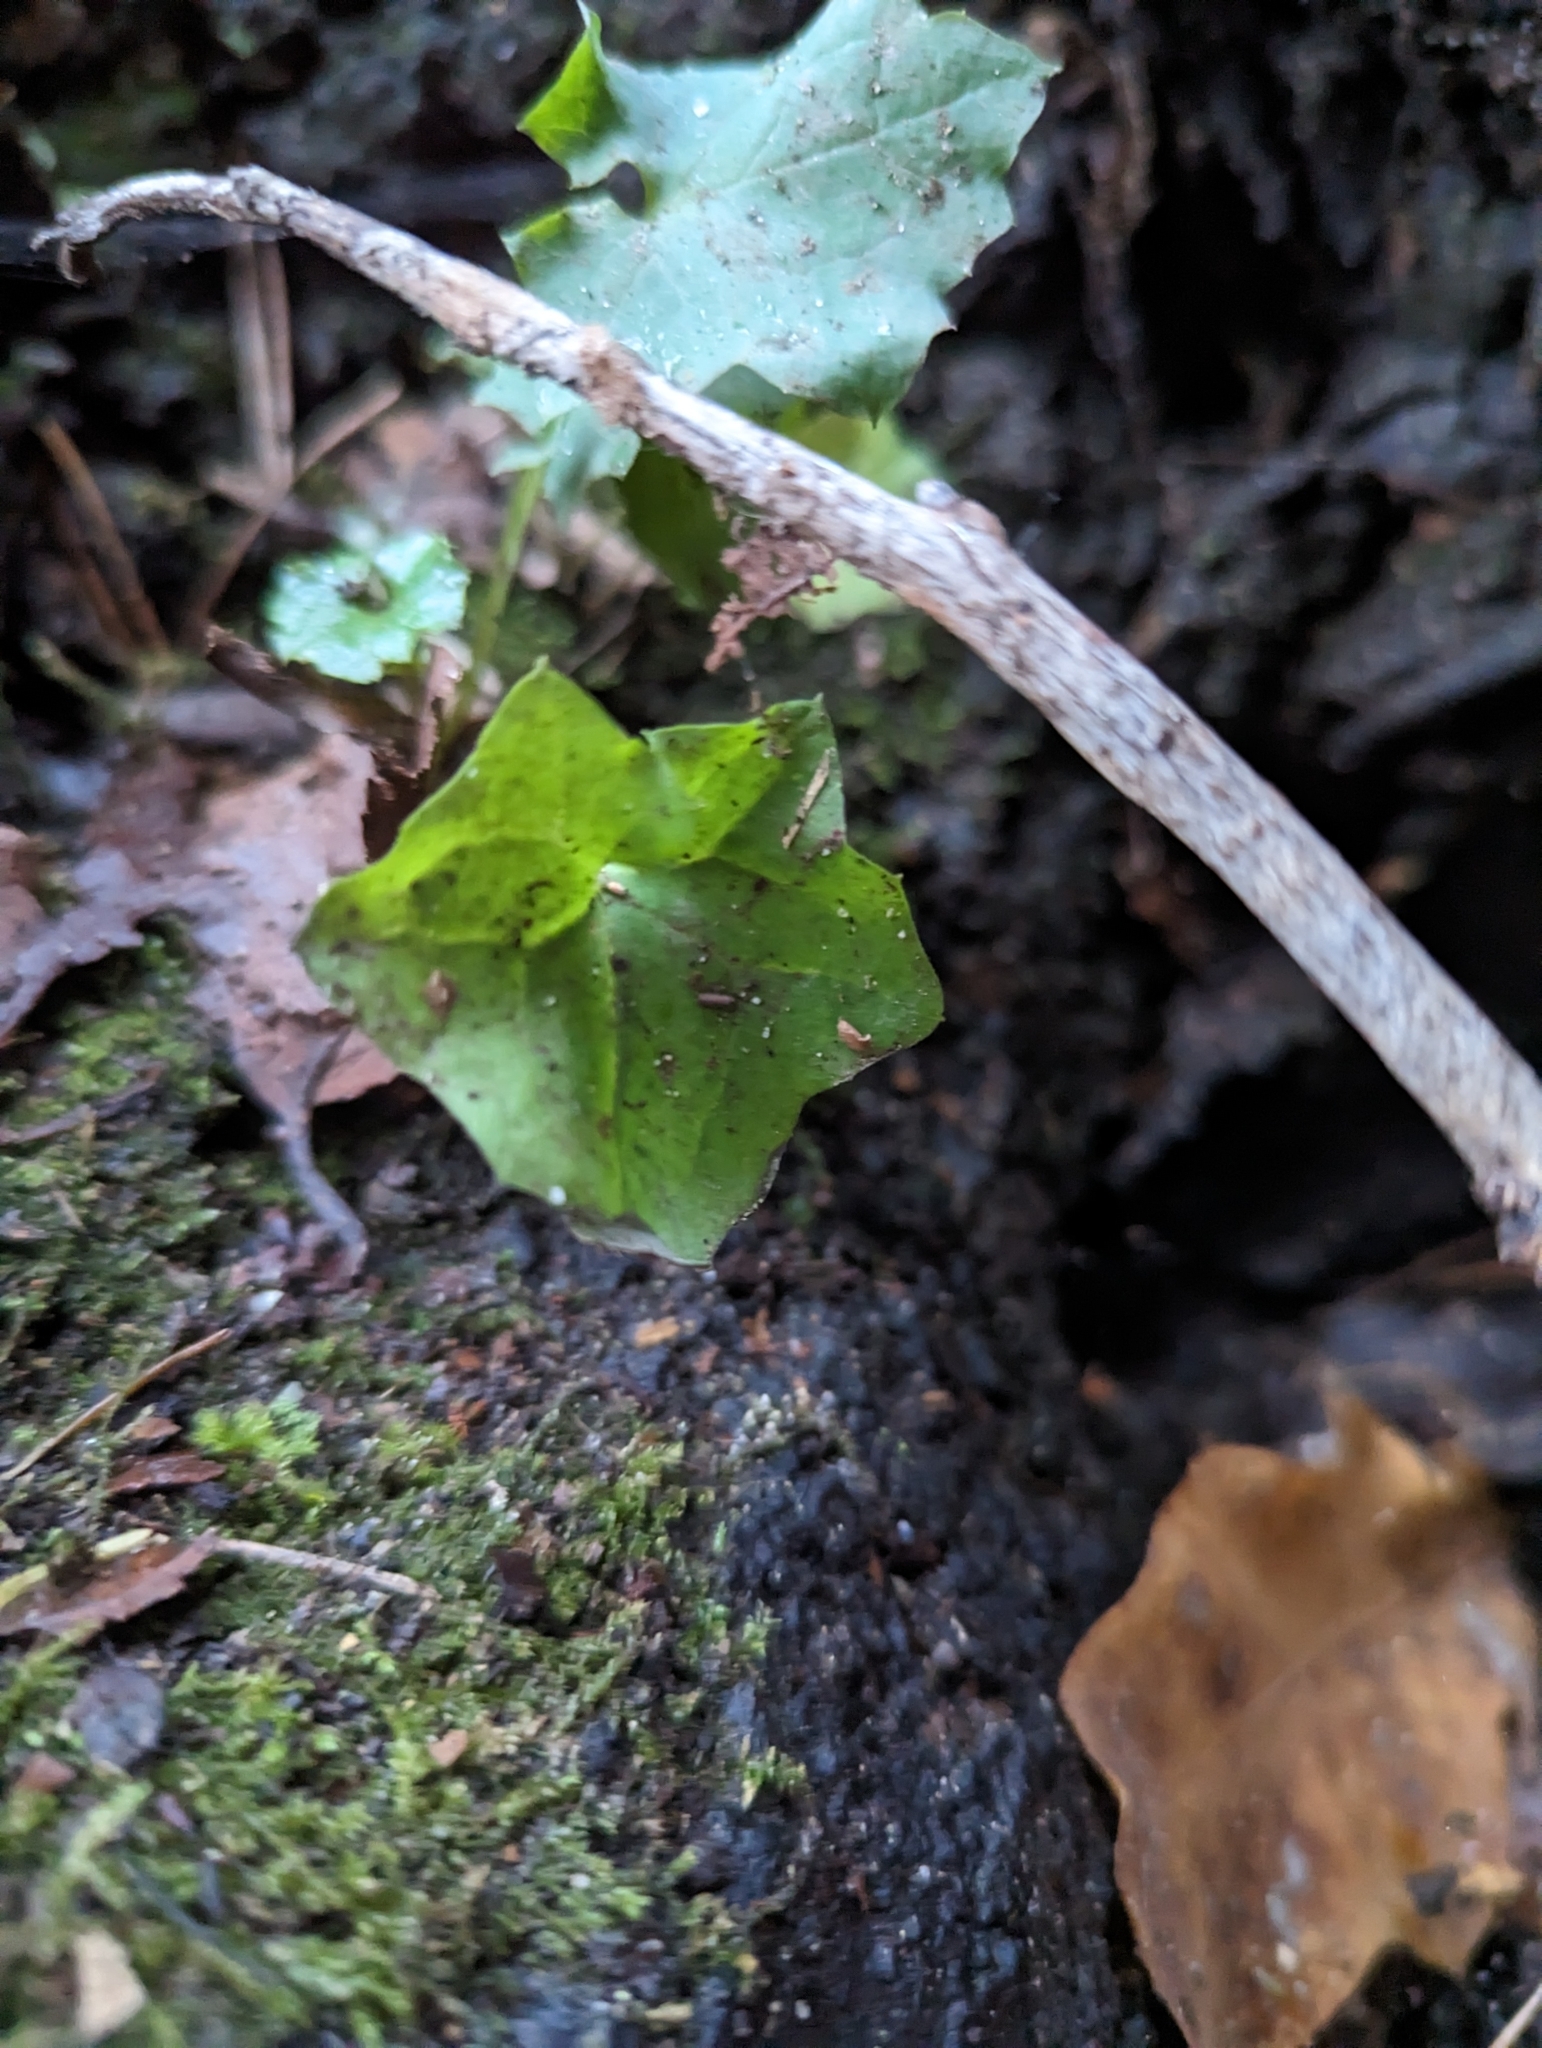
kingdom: Plantae
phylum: Tracheophyta
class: Magnoliopsida
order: Asterales
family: Asteraceae
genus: Mycelis
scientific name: Mycelis muralis
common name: Wall lettuce
